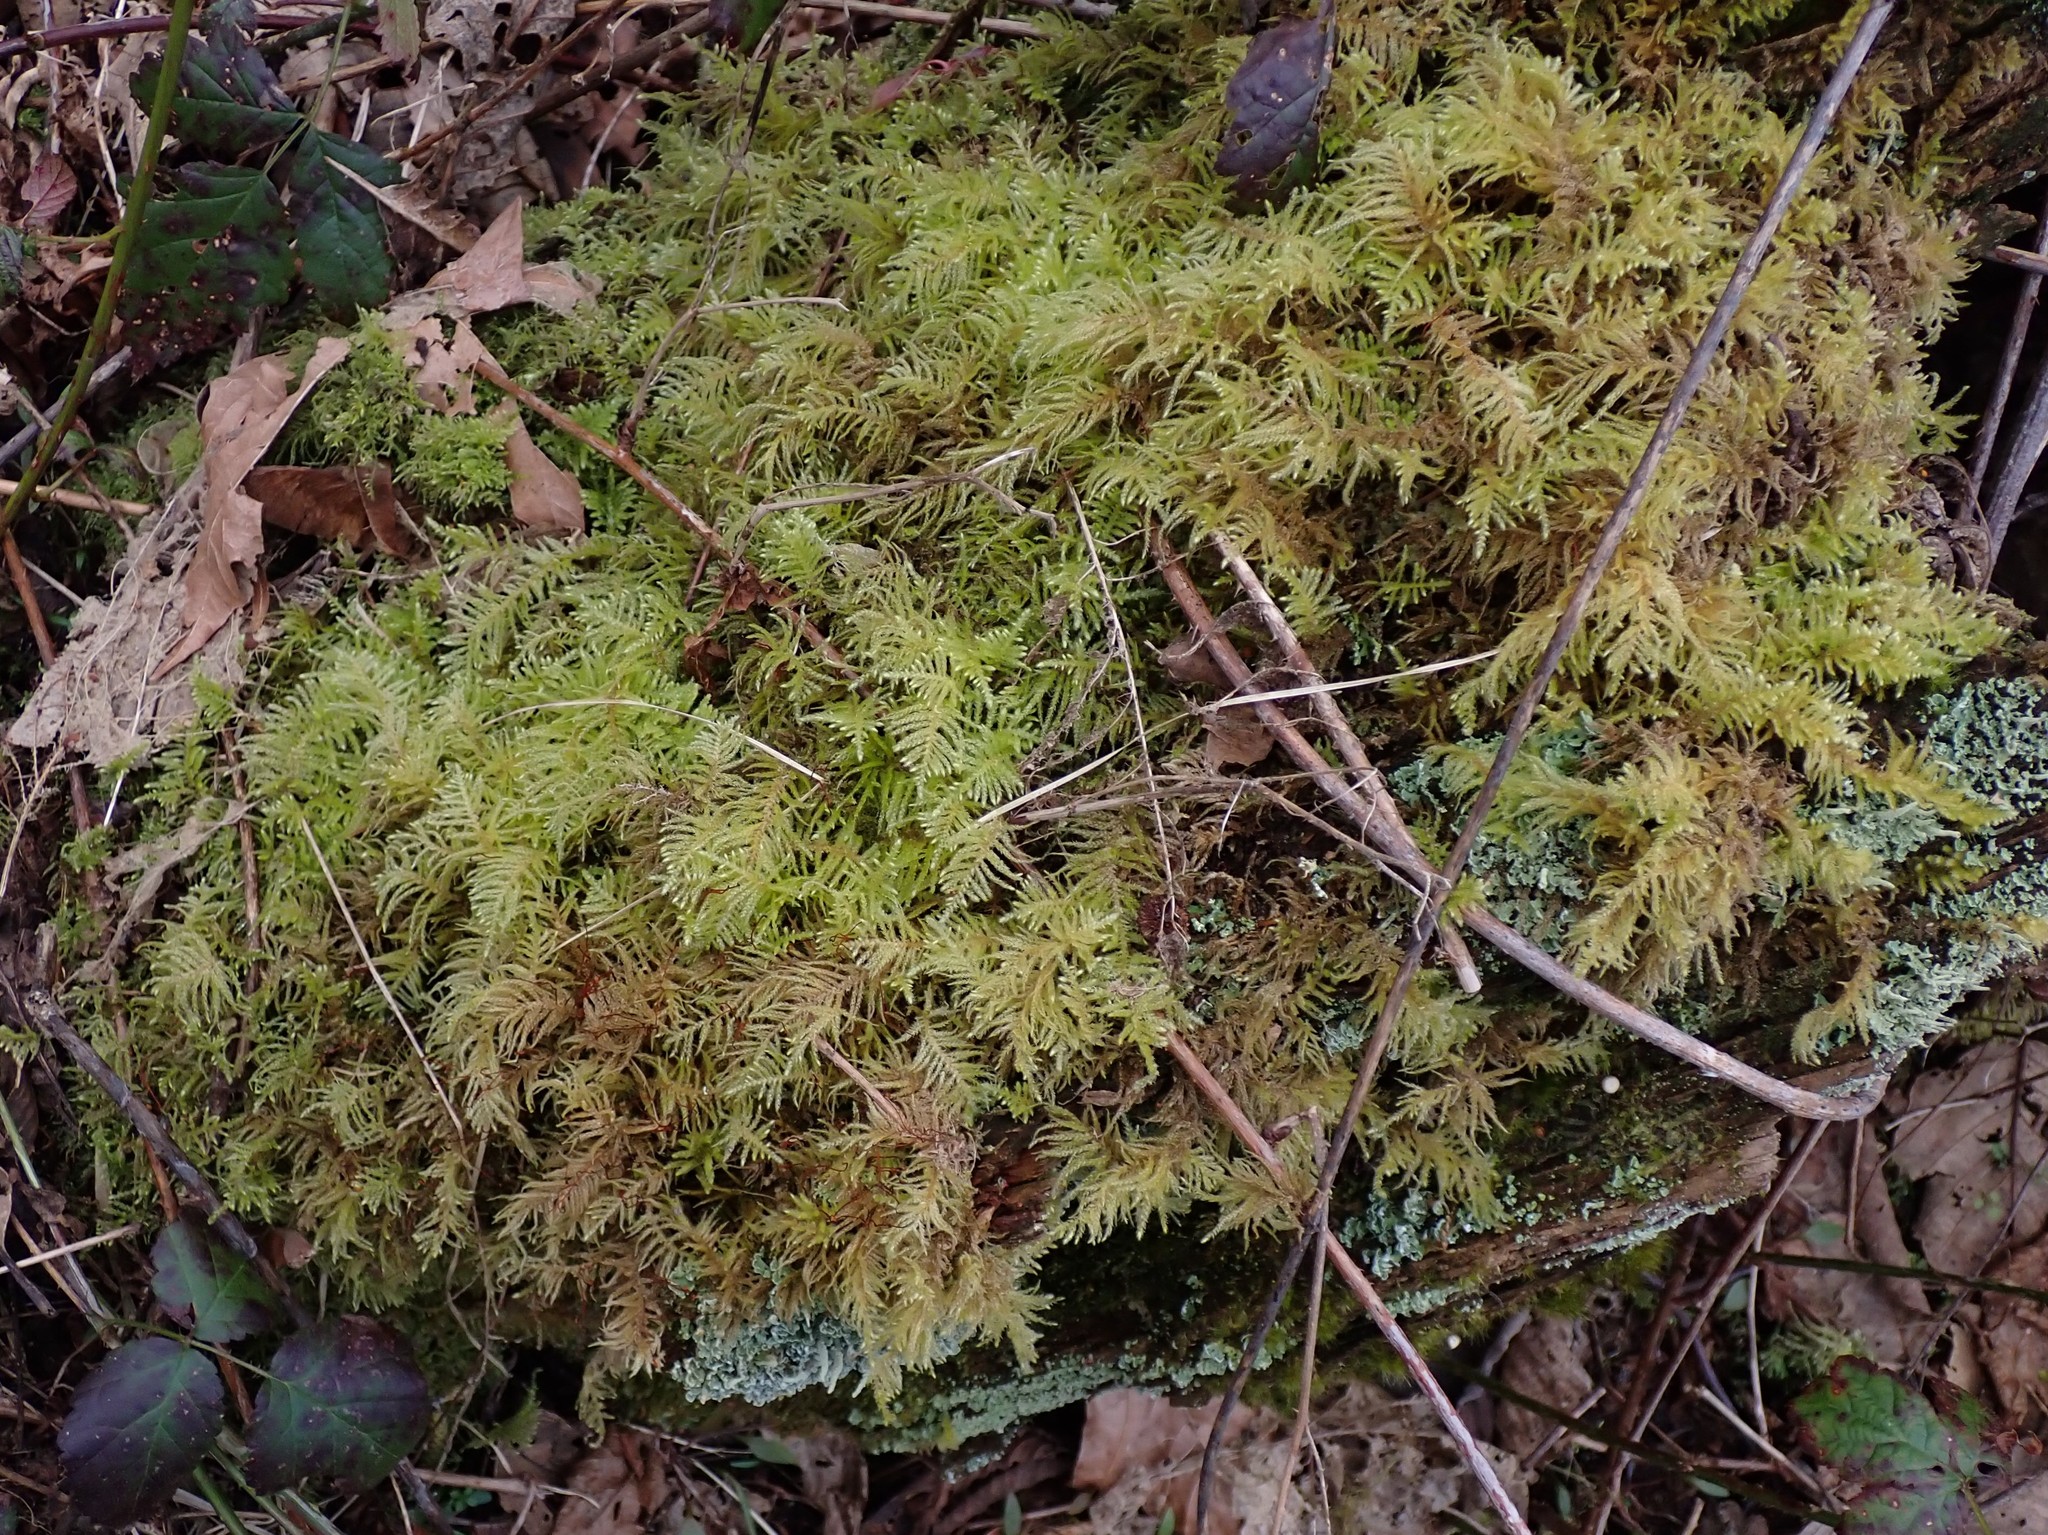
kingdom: Plantae
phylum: Bryophyta
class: Bryopsida
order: Hypnales
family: Hylocomiaceae
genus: Hylocomium
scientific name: Hylocomium splendens
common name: Stairstep moss
